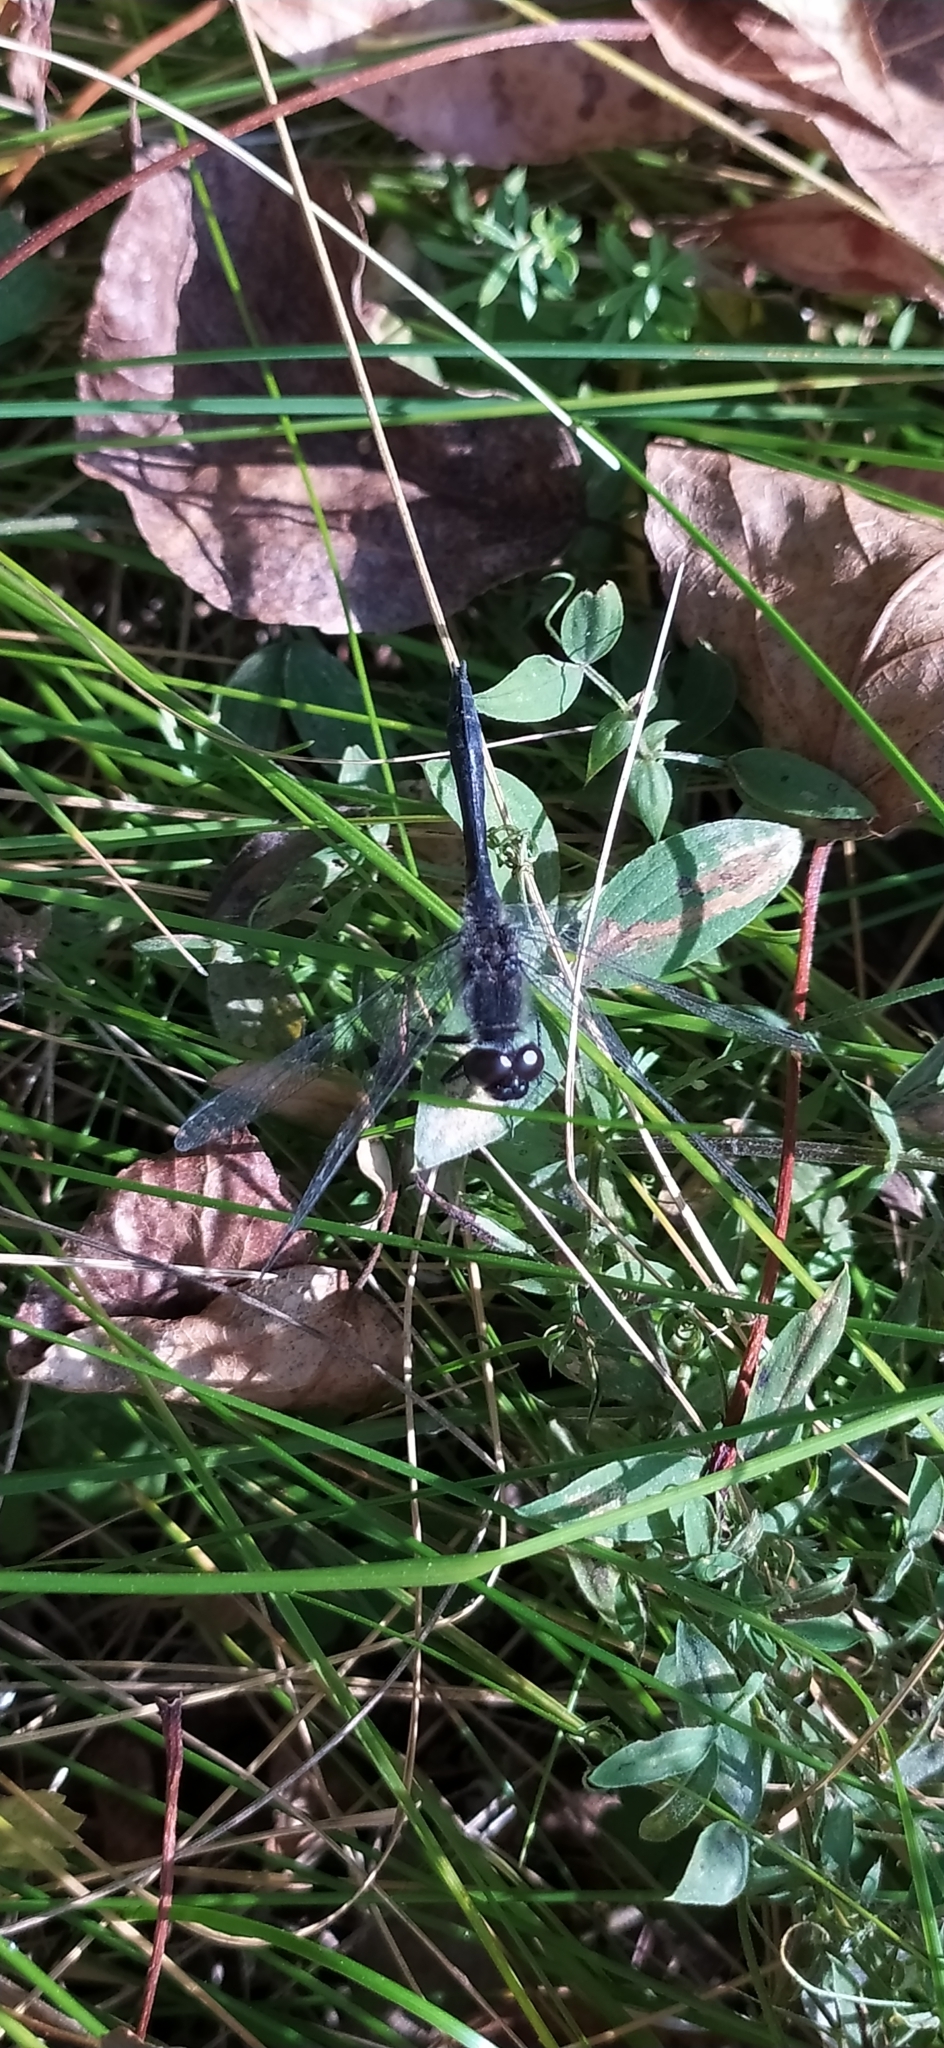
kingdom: Animalia
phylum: Arthropoda
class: Insecta
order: Odonata
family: Libellulidae
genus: Sympetrum
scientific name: Sympetrum danae
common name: Black darter
